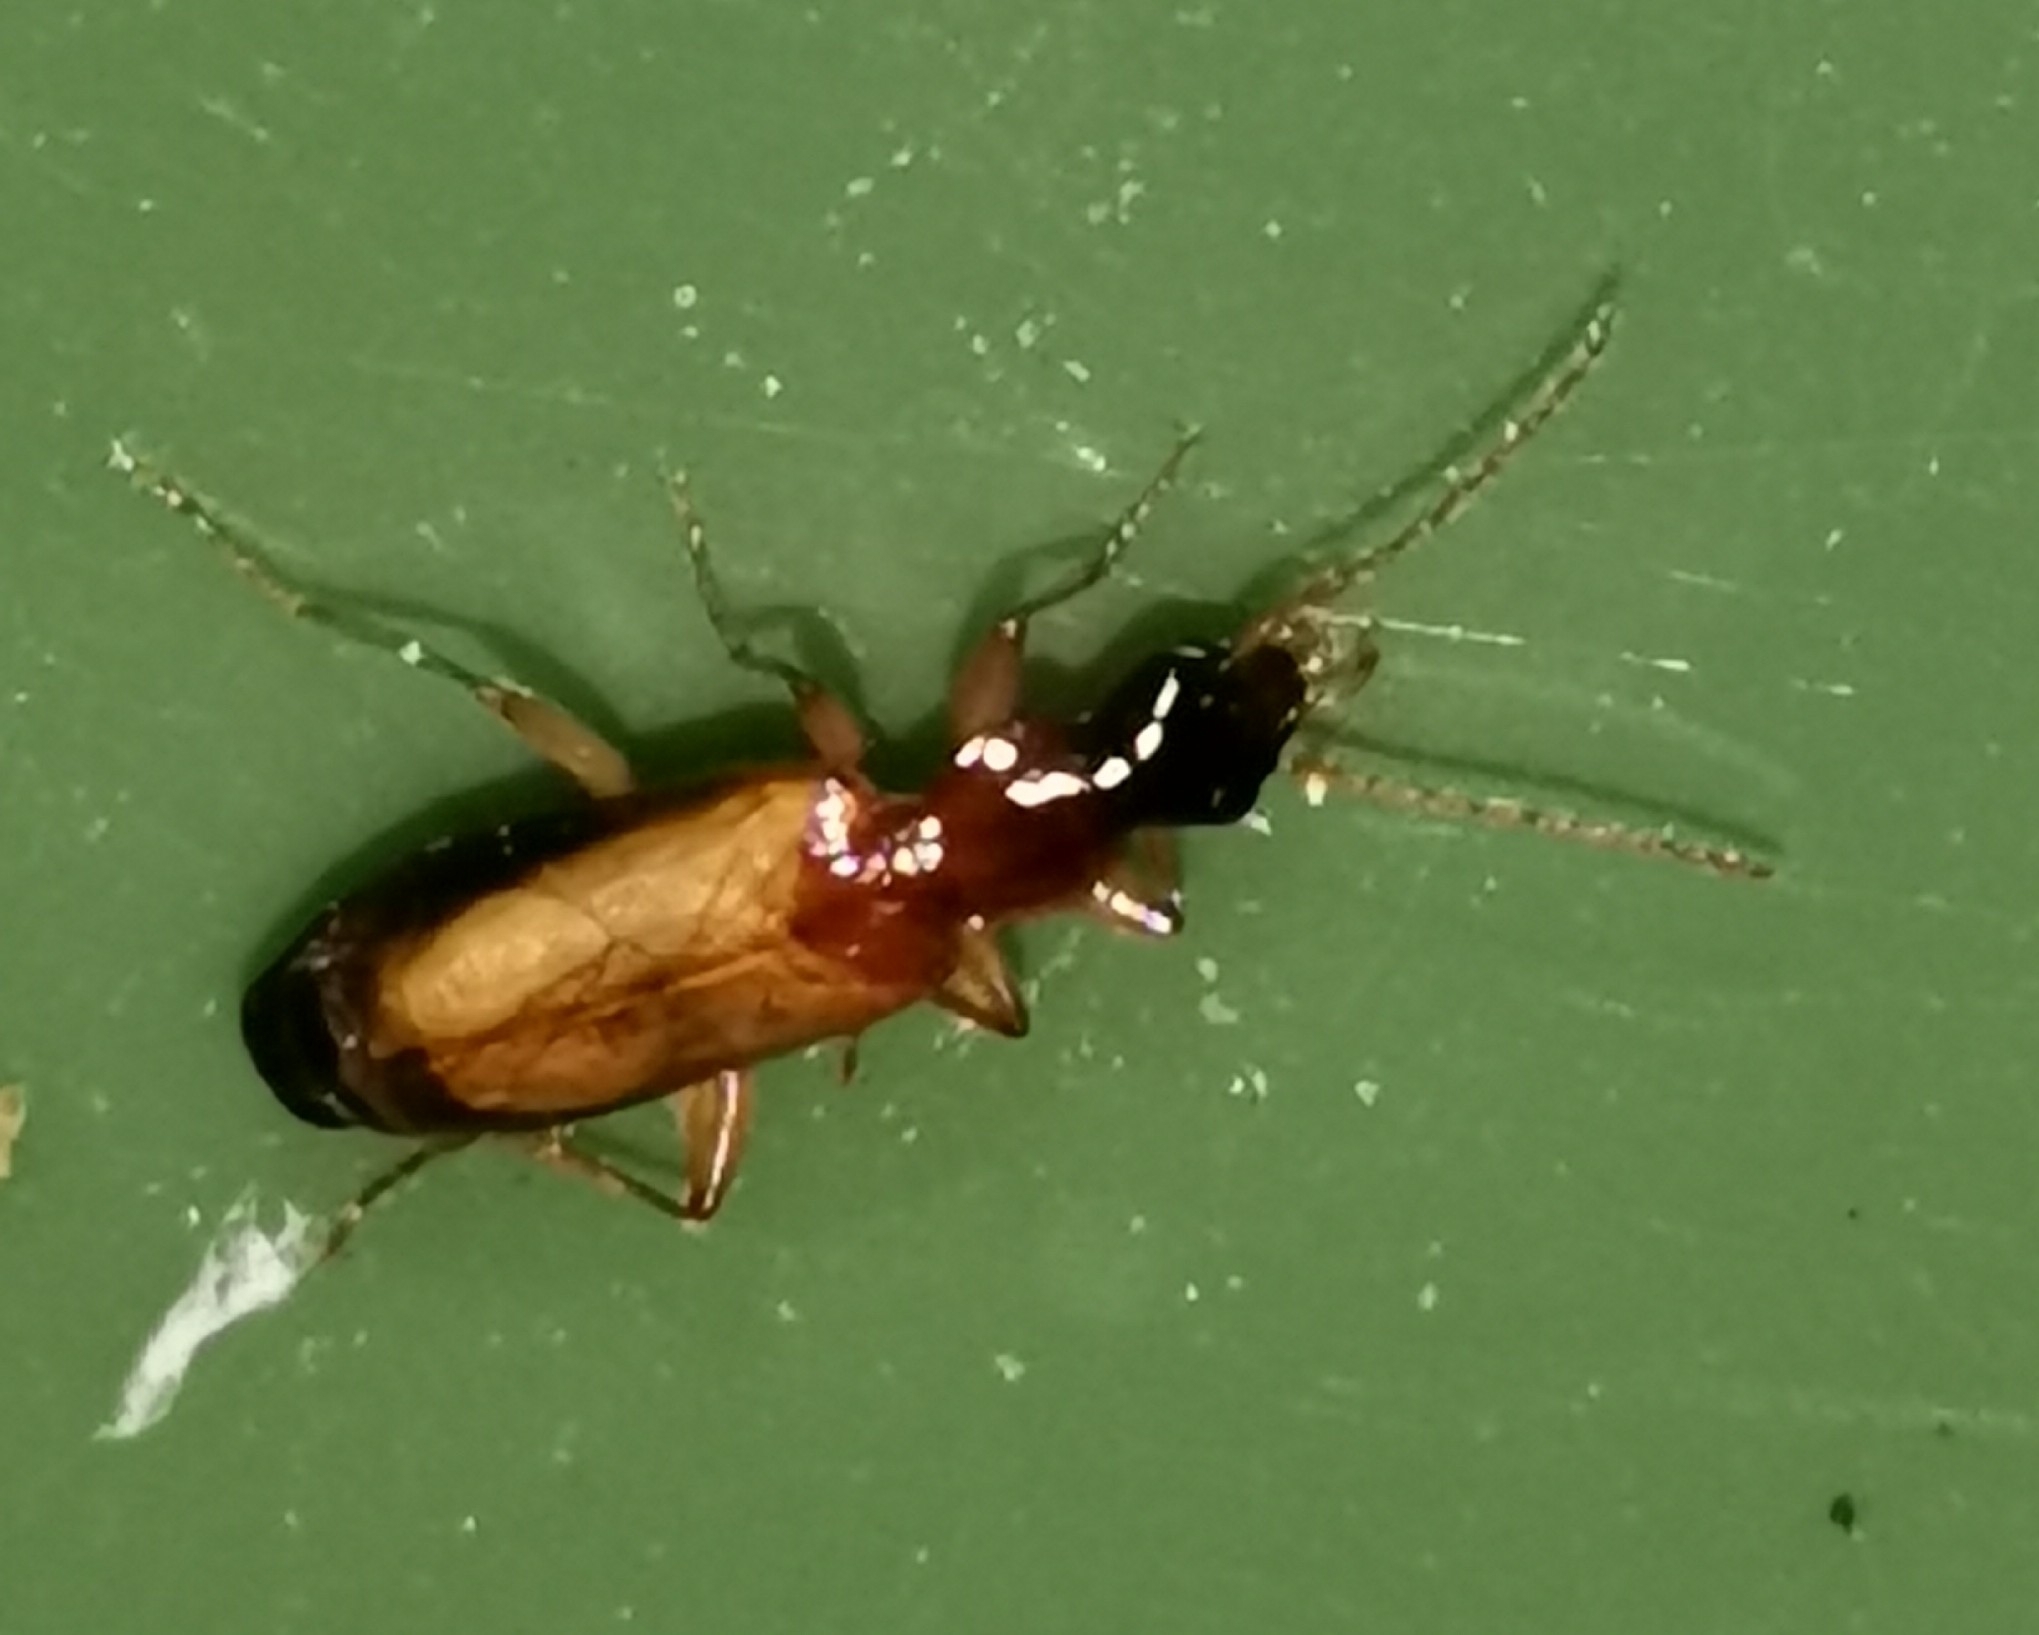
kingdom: Animalia
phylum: Arthropoda
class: Insecta
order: Coleoptera
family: Carabidae
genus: Dromius
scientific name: Dromius schneideri
